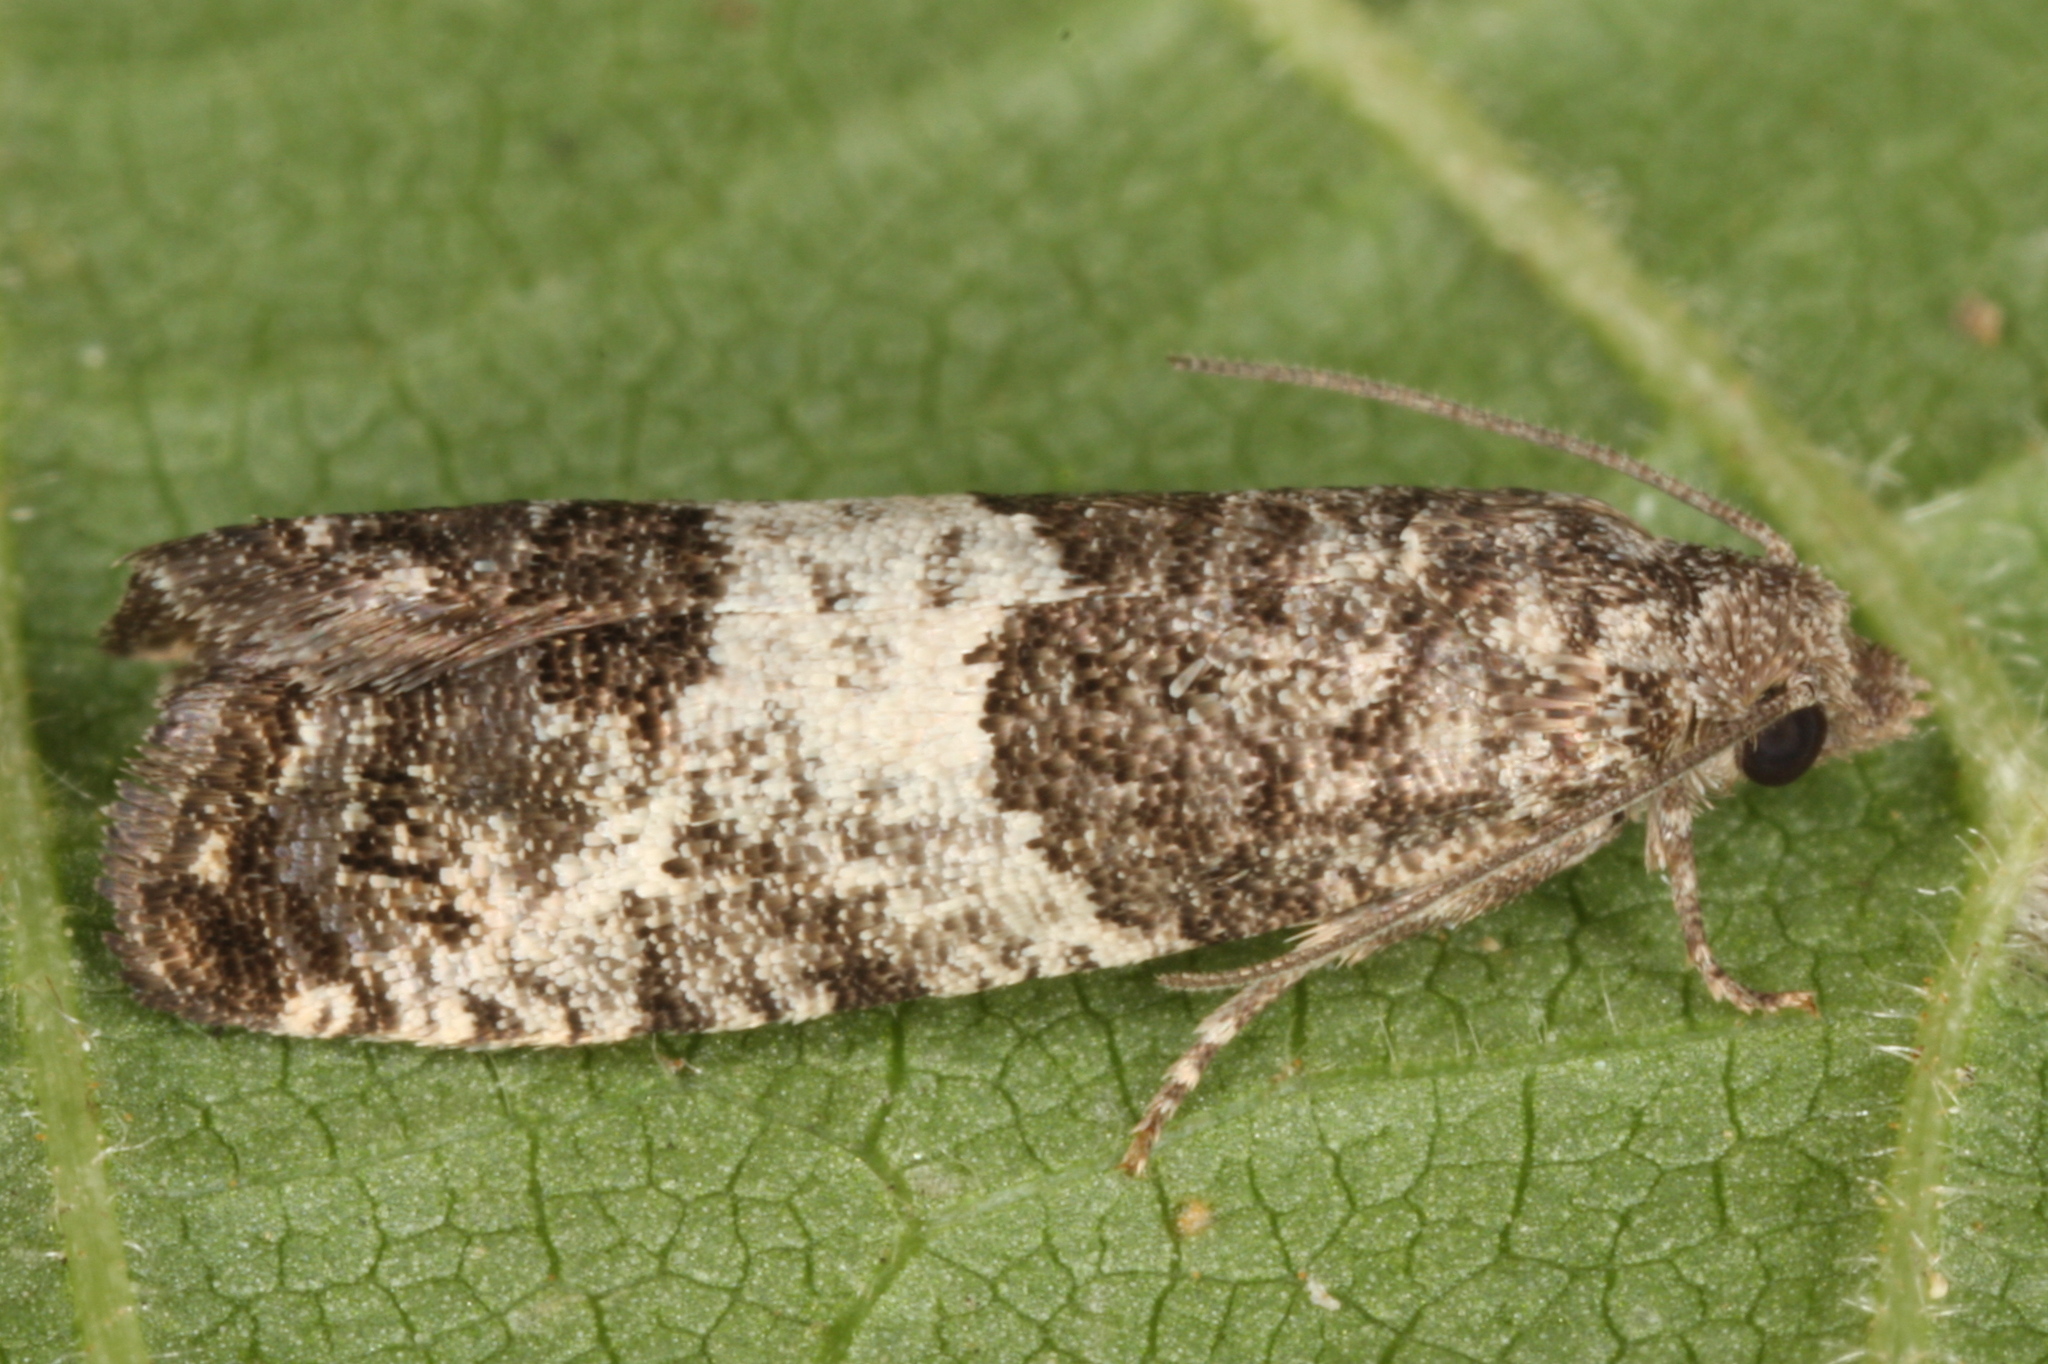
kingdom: Animalia
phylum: Arthropoda
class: Insecta
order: Lepidoptera
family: Tortricidae
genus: Spilonota
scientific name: Spilonota laricana
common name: Larch shoot tortricid moth
